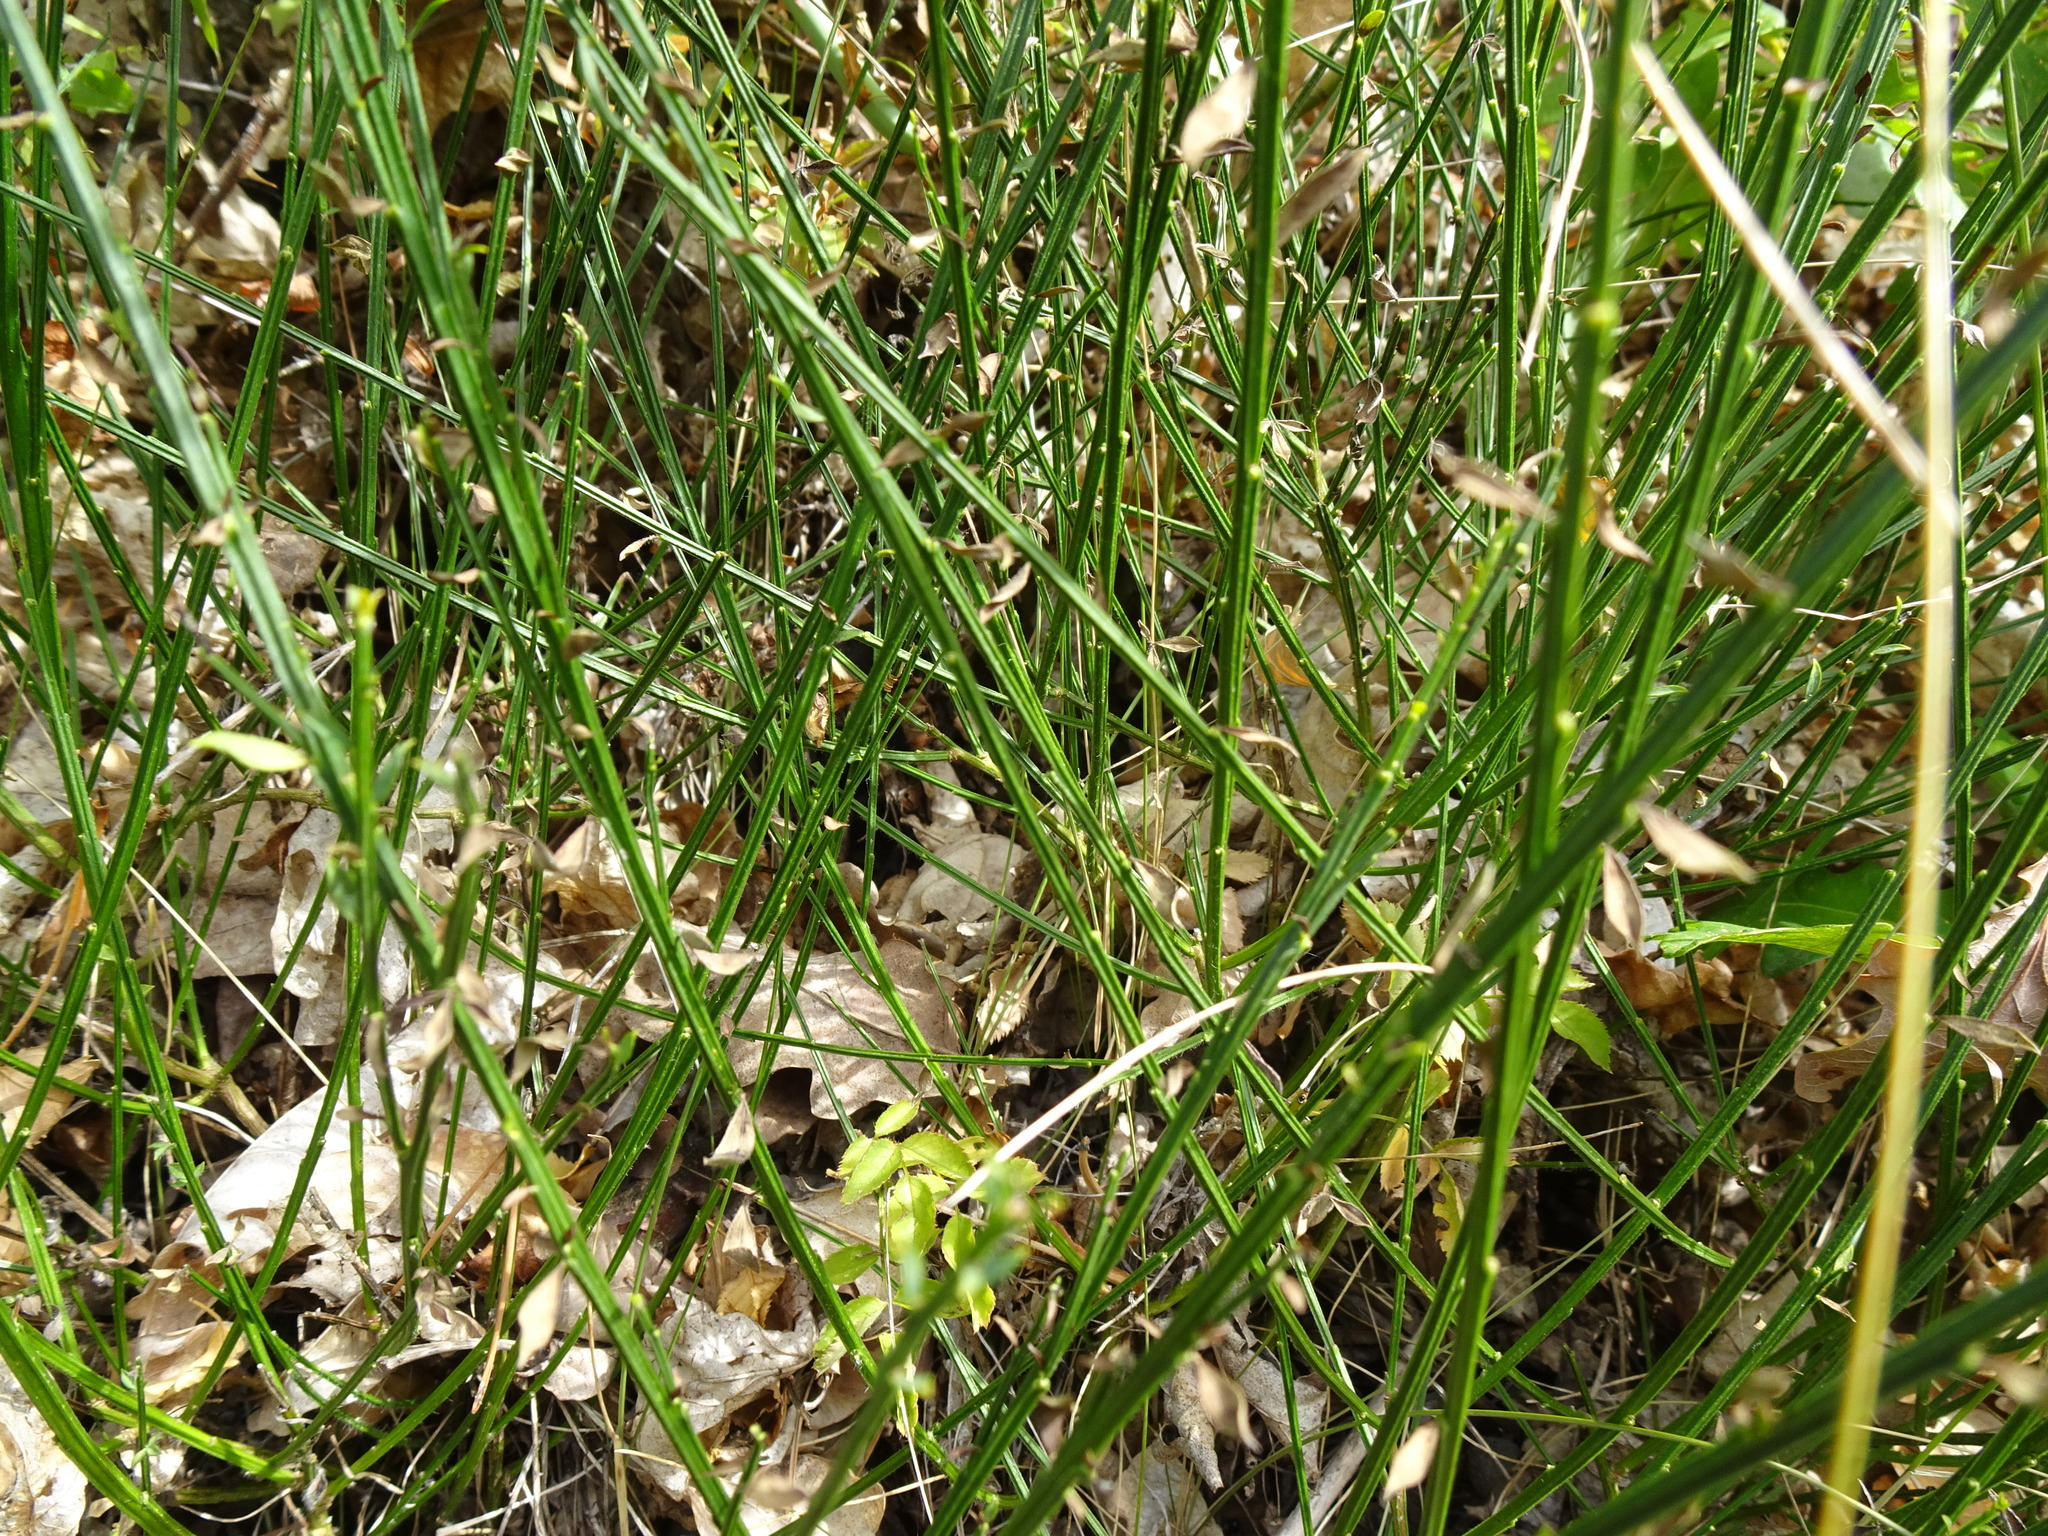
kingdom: Plantae
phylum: Tracheophyta
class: Magnoliopsida
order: Fabales
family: Fabaceae
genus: Cytisus
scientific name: Cytisus scoparius
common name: Scotch broom
